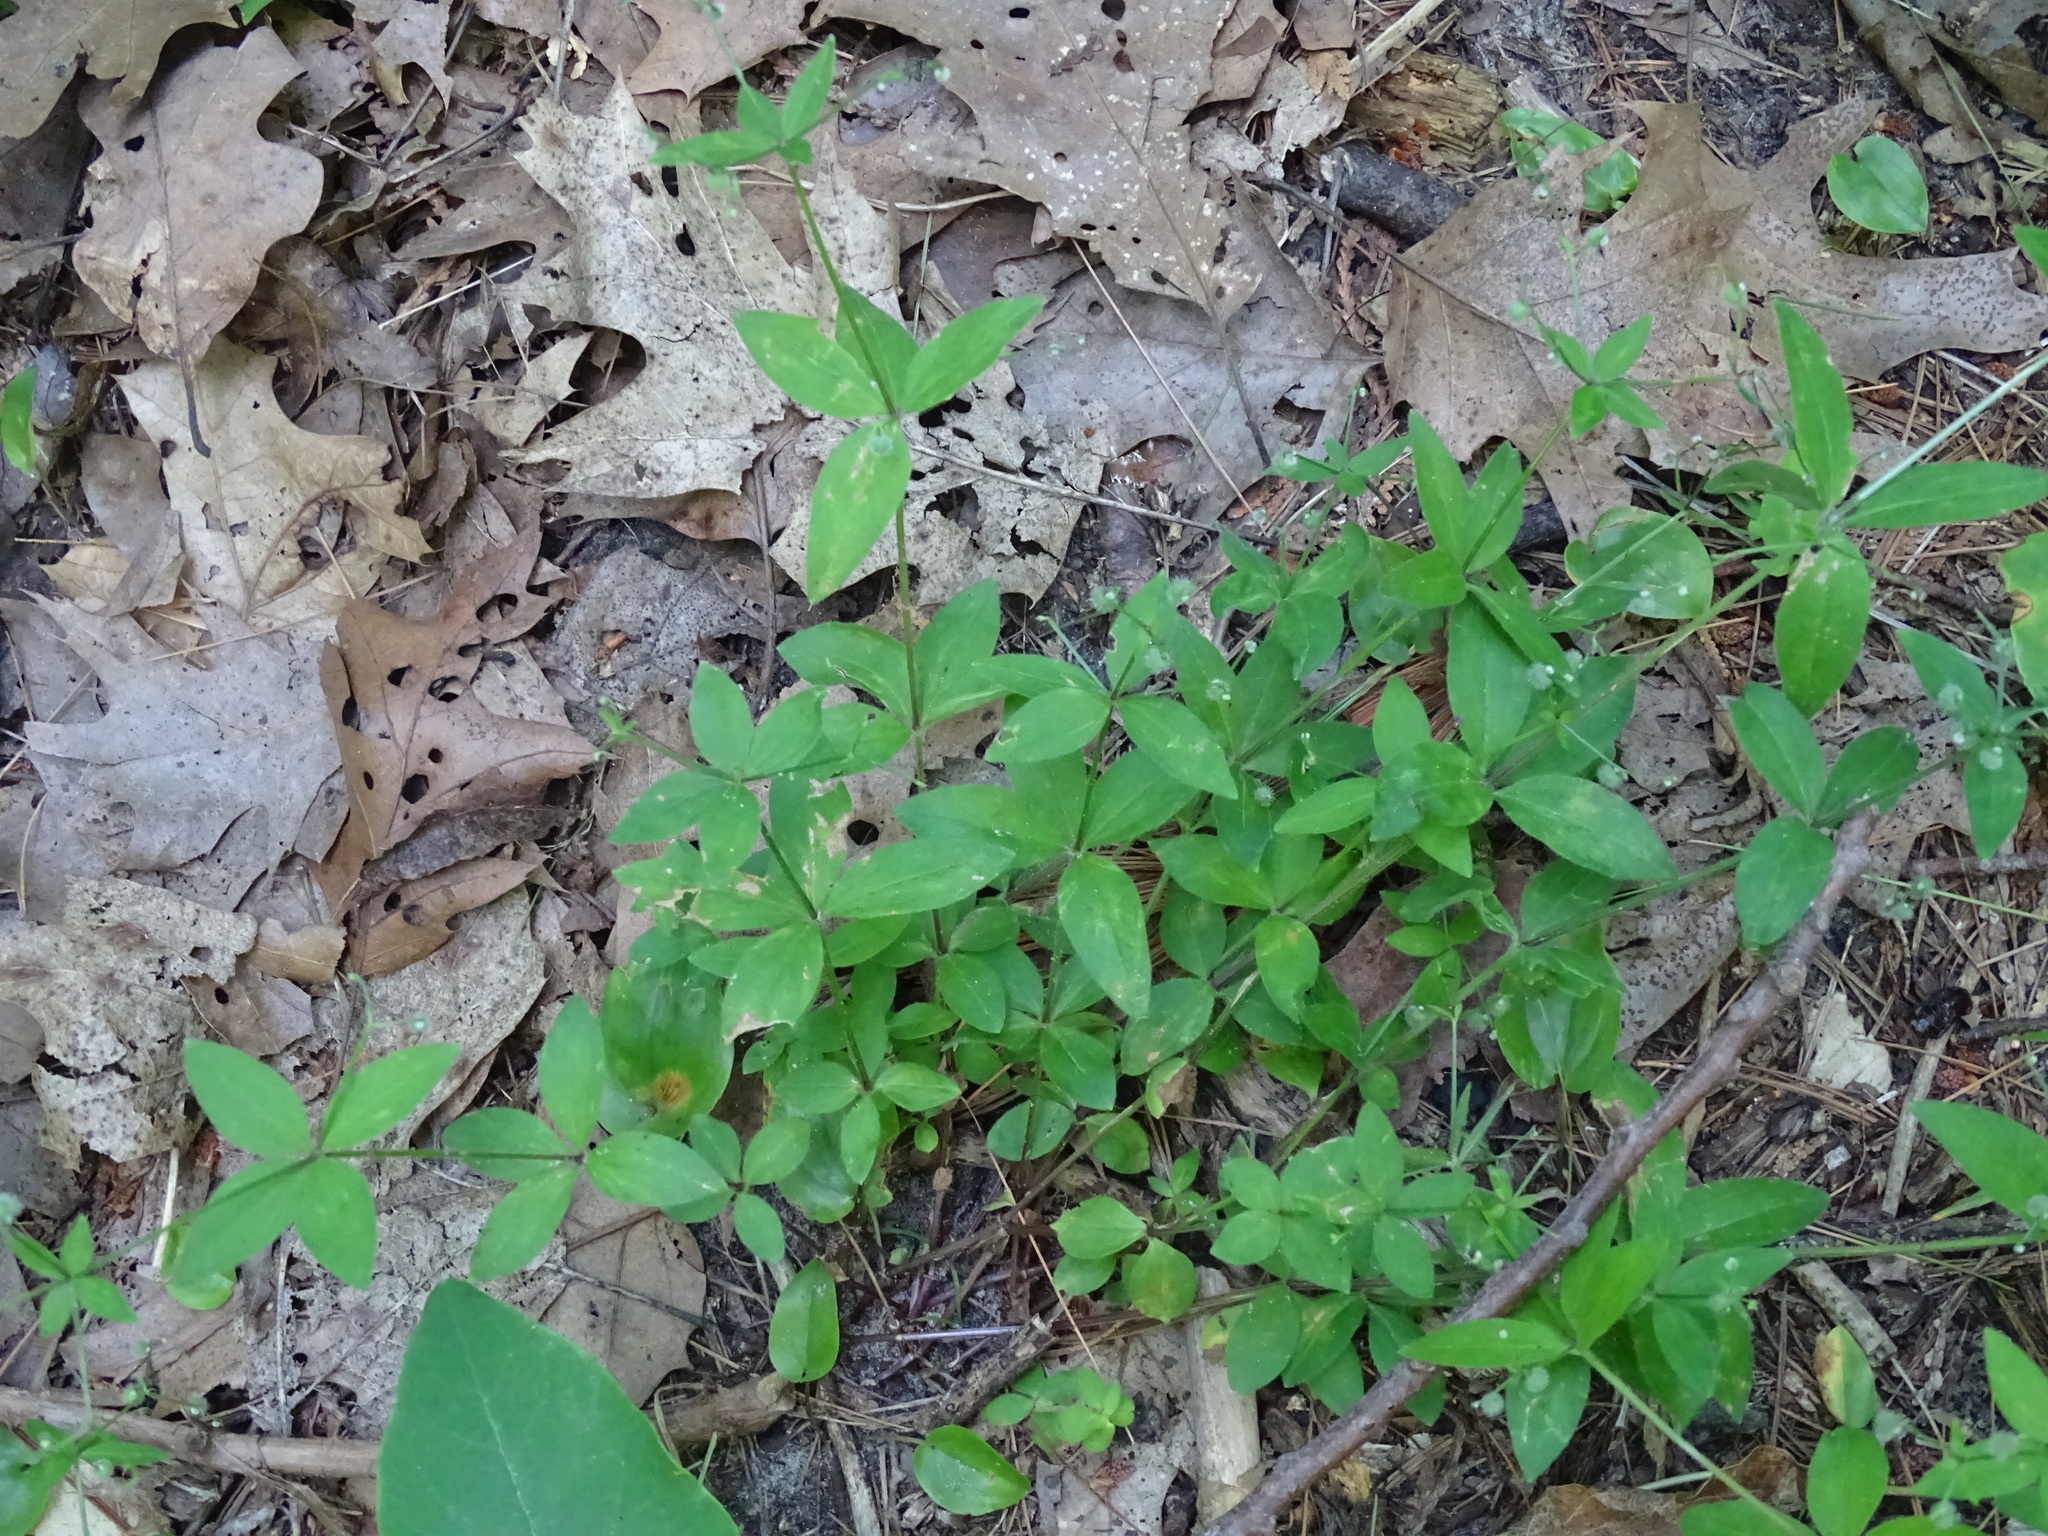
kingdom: Plantae
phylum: Tracheophyta
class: Magnoliopsida
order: Gentianales
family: Rubiaceae
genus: Galium
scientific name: Galium circaezans
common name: Forest bedstraw
